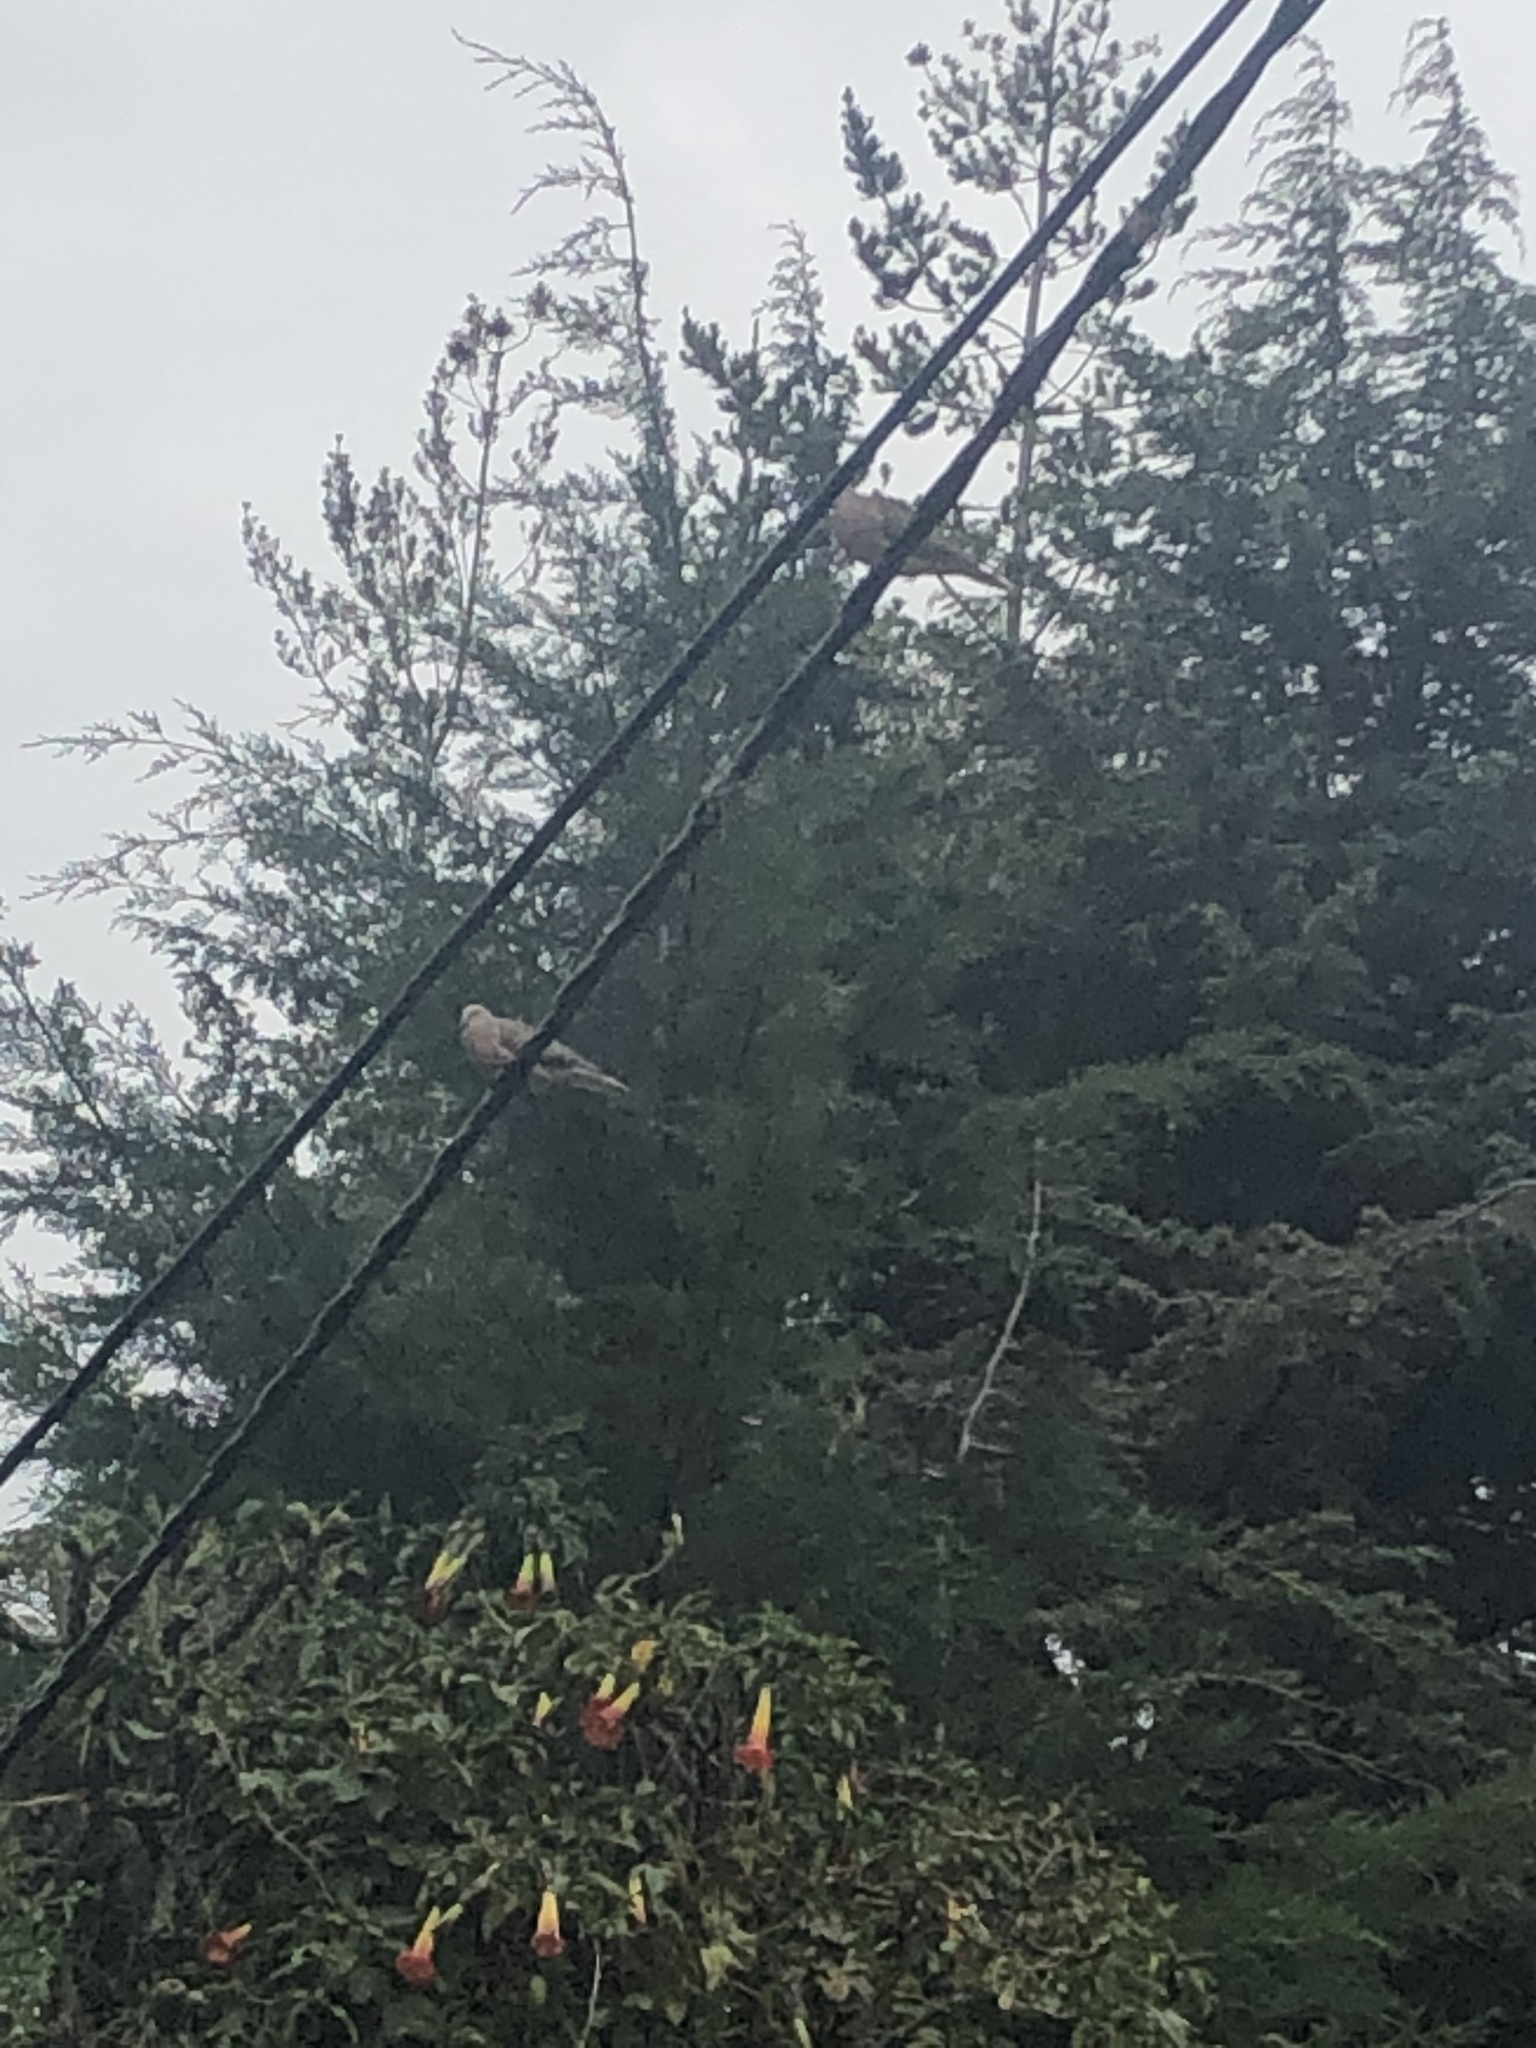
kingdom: Animalia
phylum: Chordata
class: Aves
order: Columbiformes
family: Columbidae
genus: Zenaida
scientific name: Zenaida auriculata
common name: Eared dove
